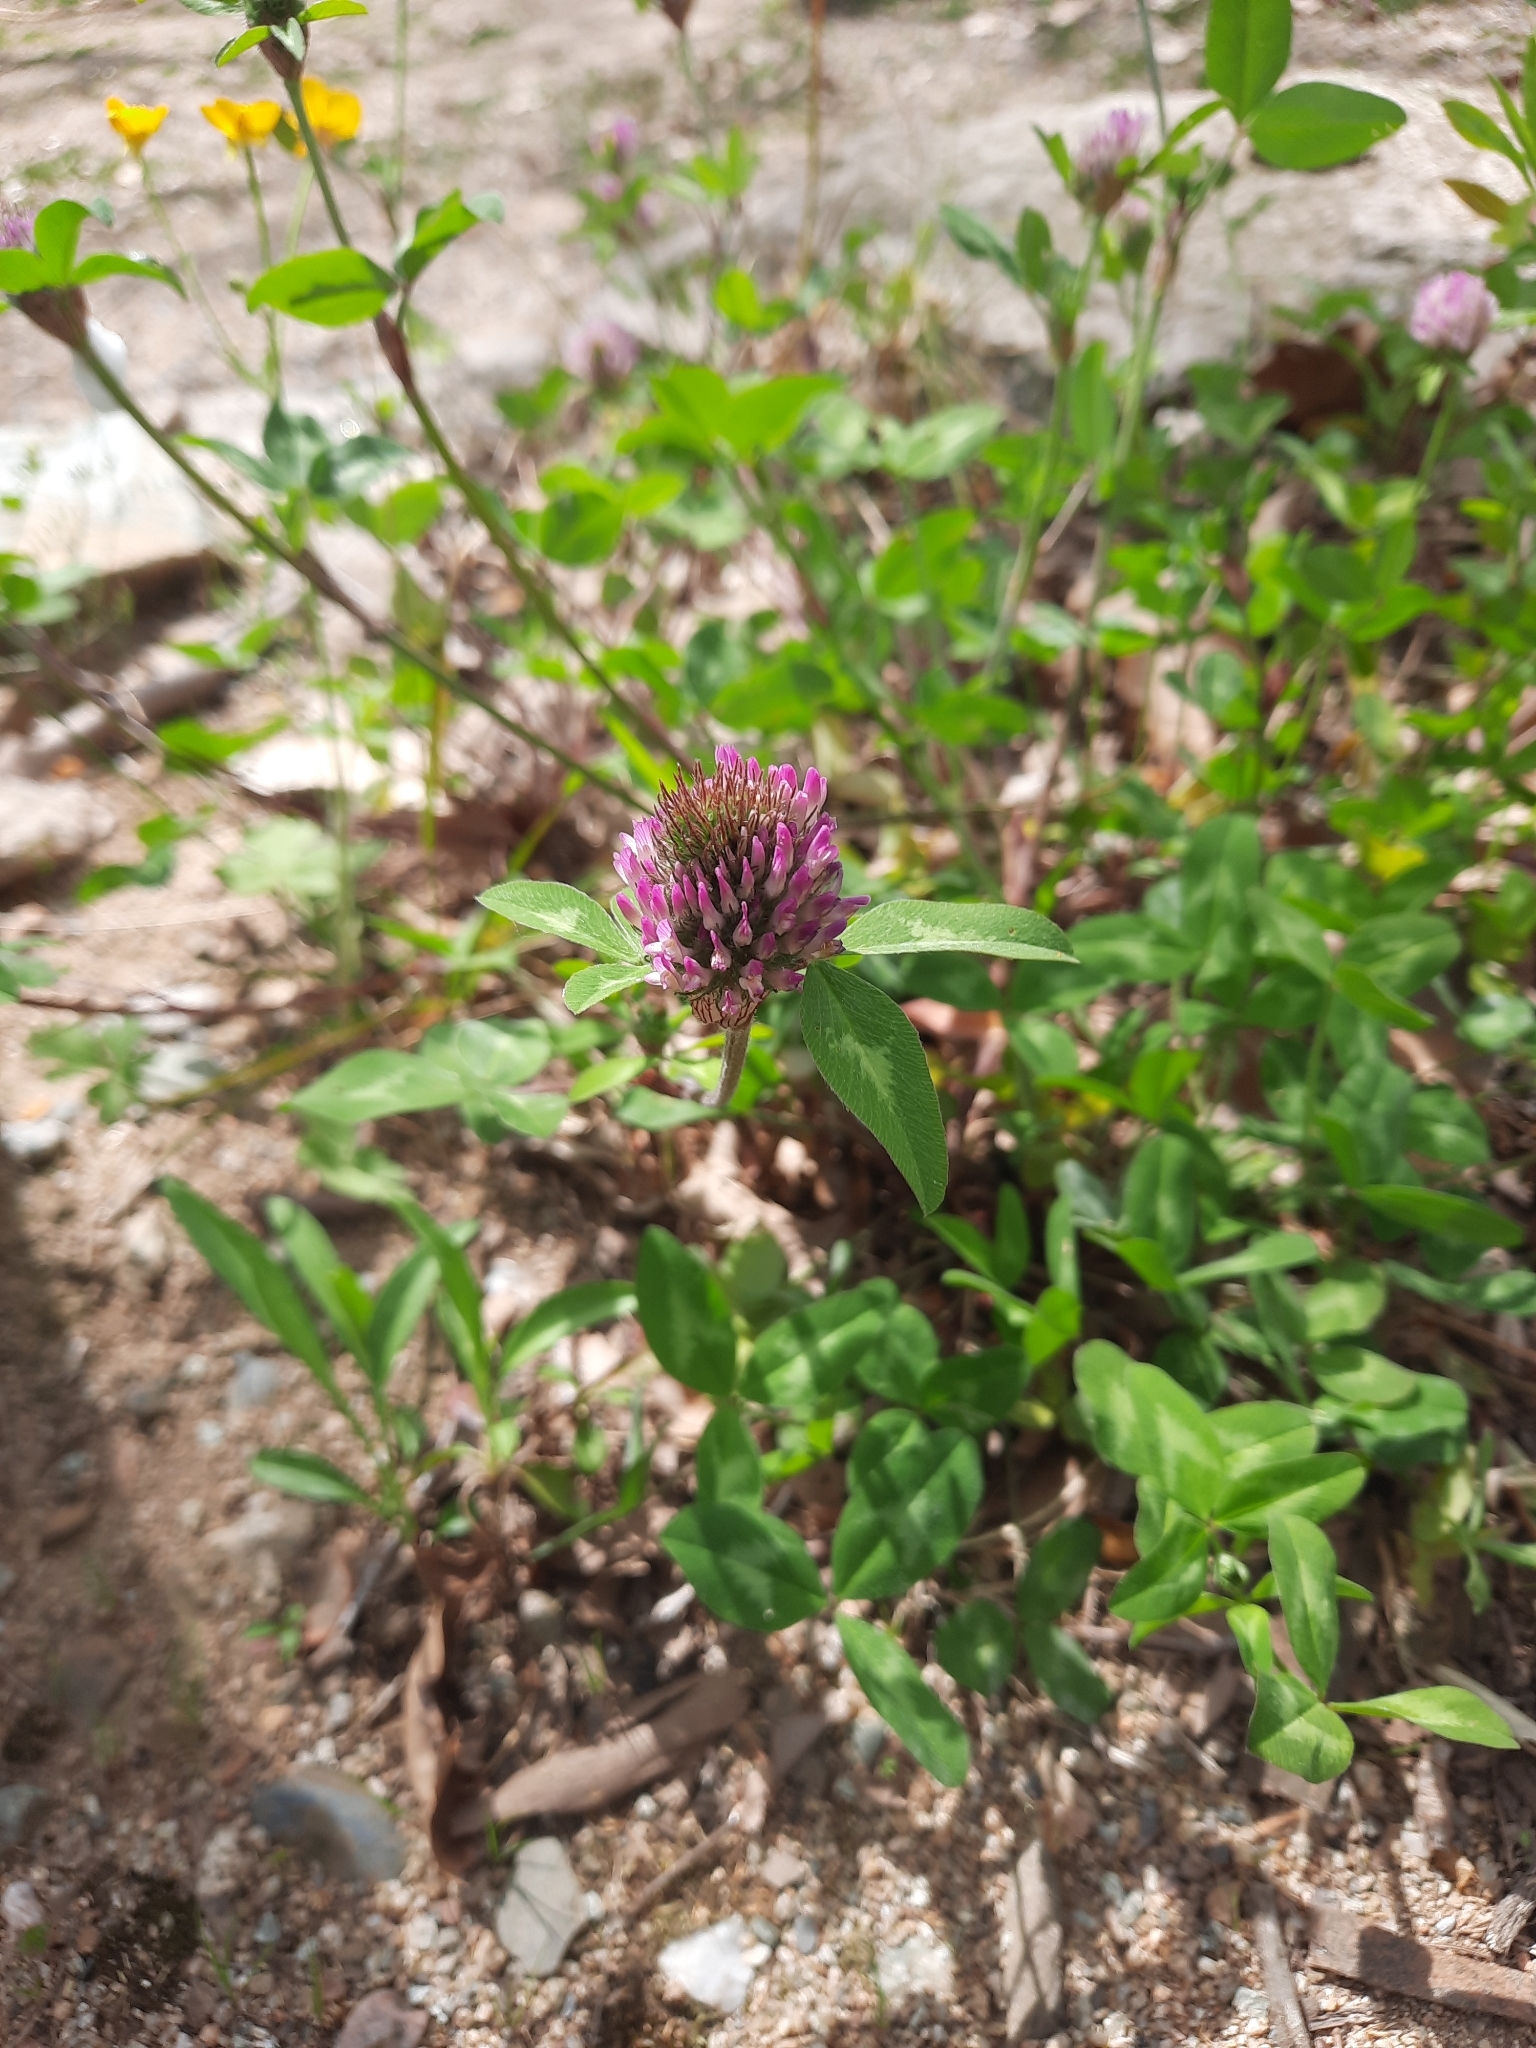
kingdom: Plantae
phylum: Tracheophyta
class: Magnoliopsida
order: Fabales
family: Fabaceae
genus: Trifolium
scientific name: Trifolium pratense
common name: Red clover
